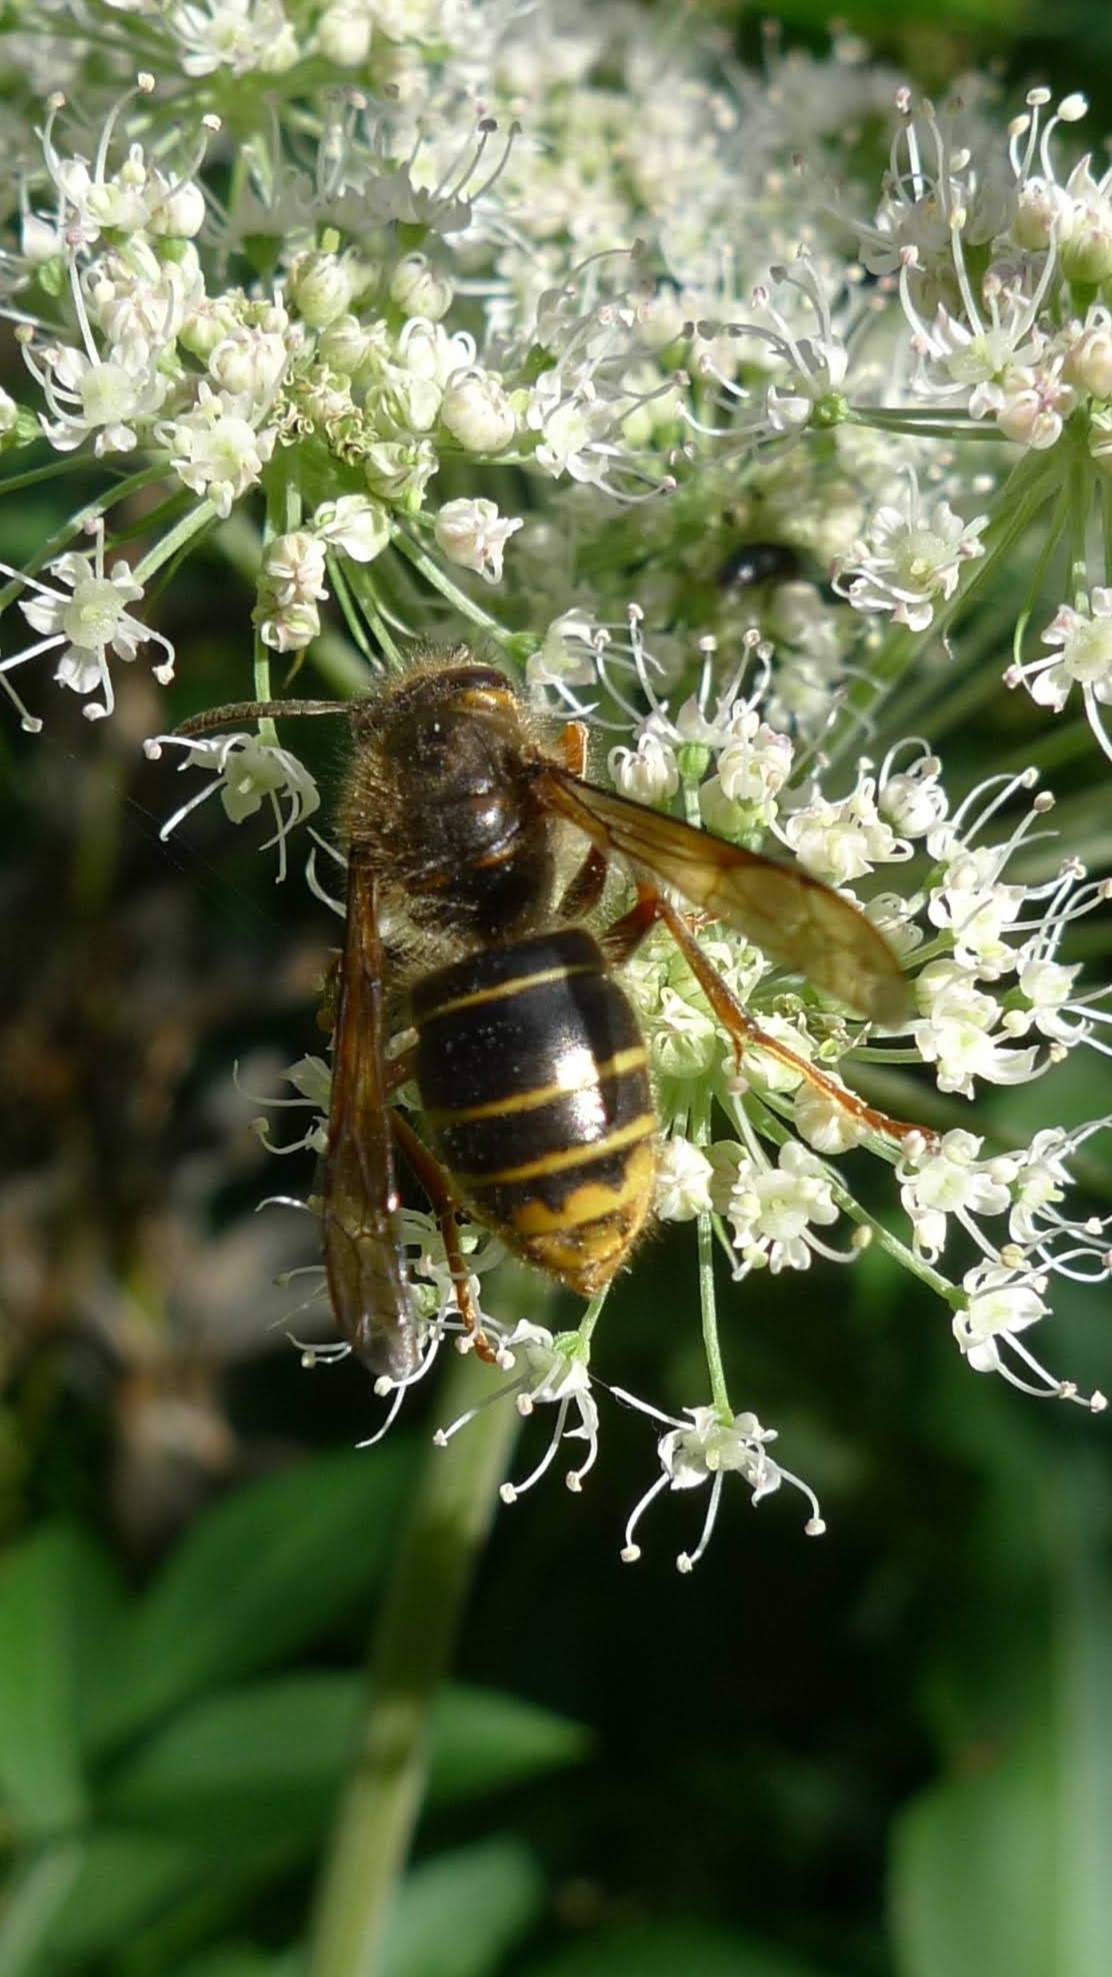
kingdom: Animalia
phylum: Arthropoda
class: Insecta
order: Hymenoptera
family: Vespidae
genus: Dolichovespula
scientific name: Dolichovespula media
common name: Median wasp
